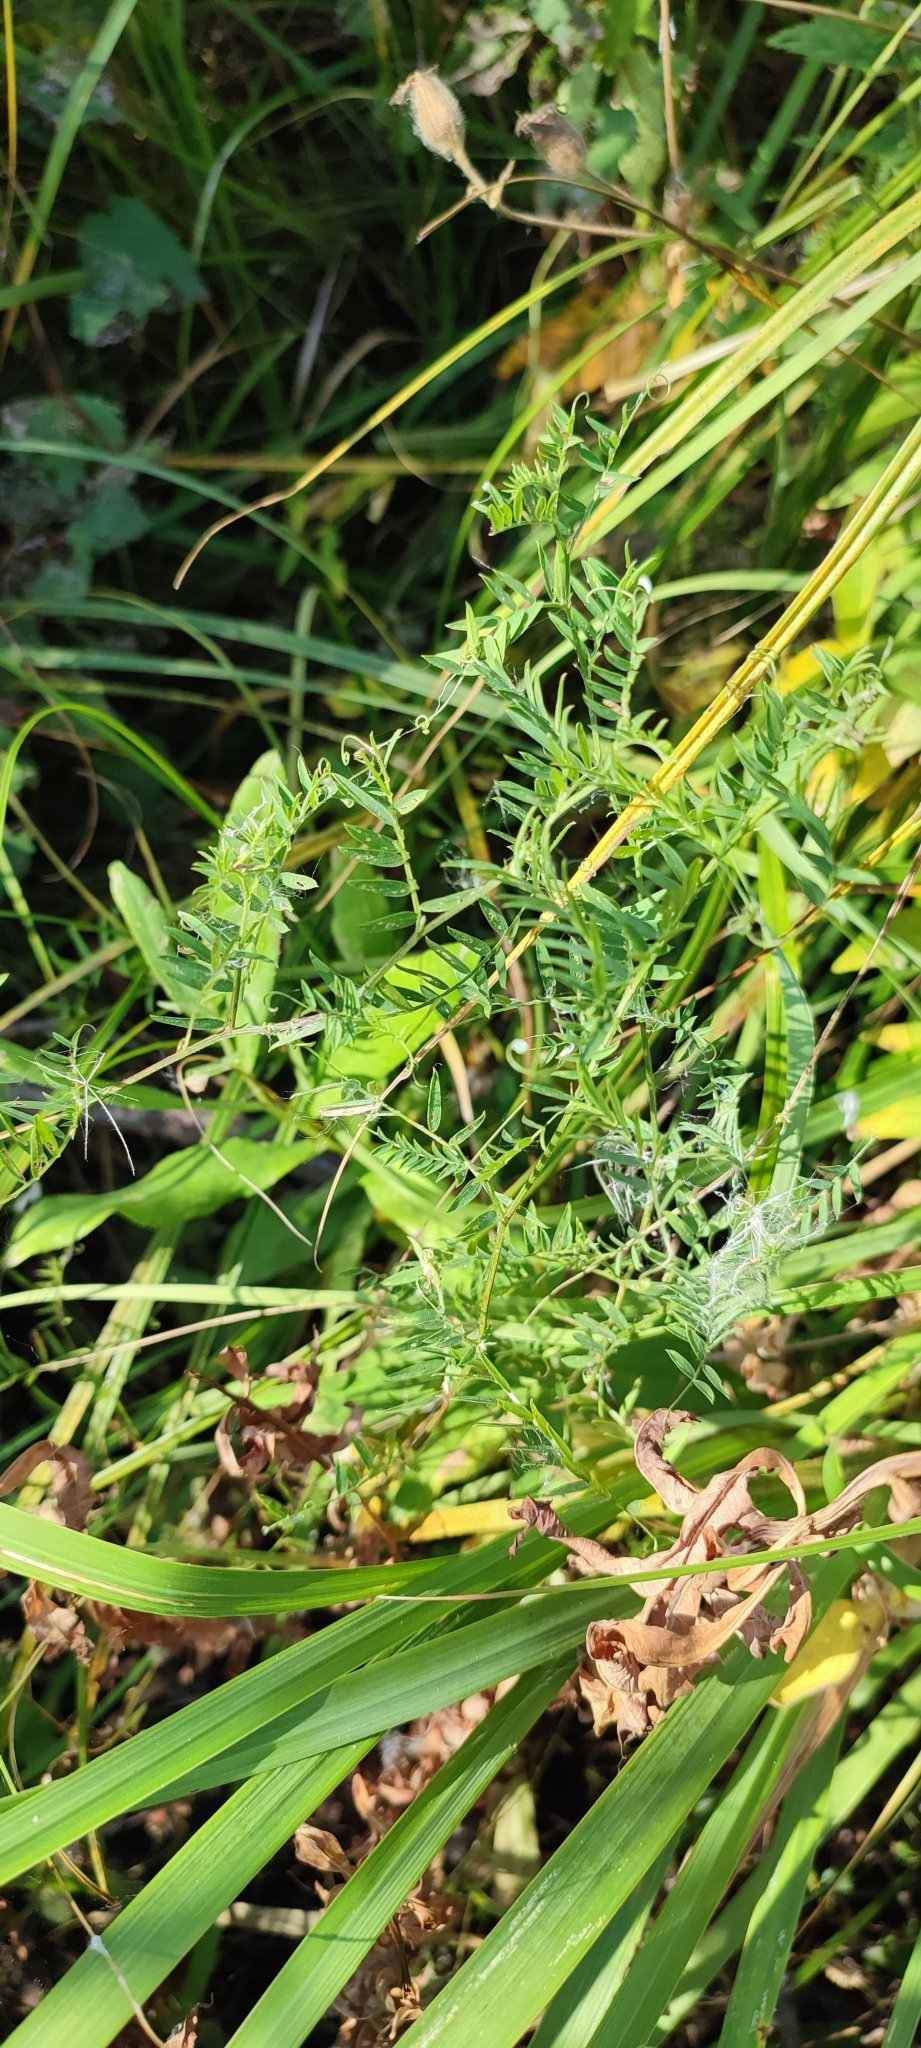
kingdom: Plantae
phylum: Tracheophyta
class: Magnoliopsida
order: Fabales
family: Fabaceae
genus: Vicia
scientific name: Vicia cracca
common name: Bird vetch
